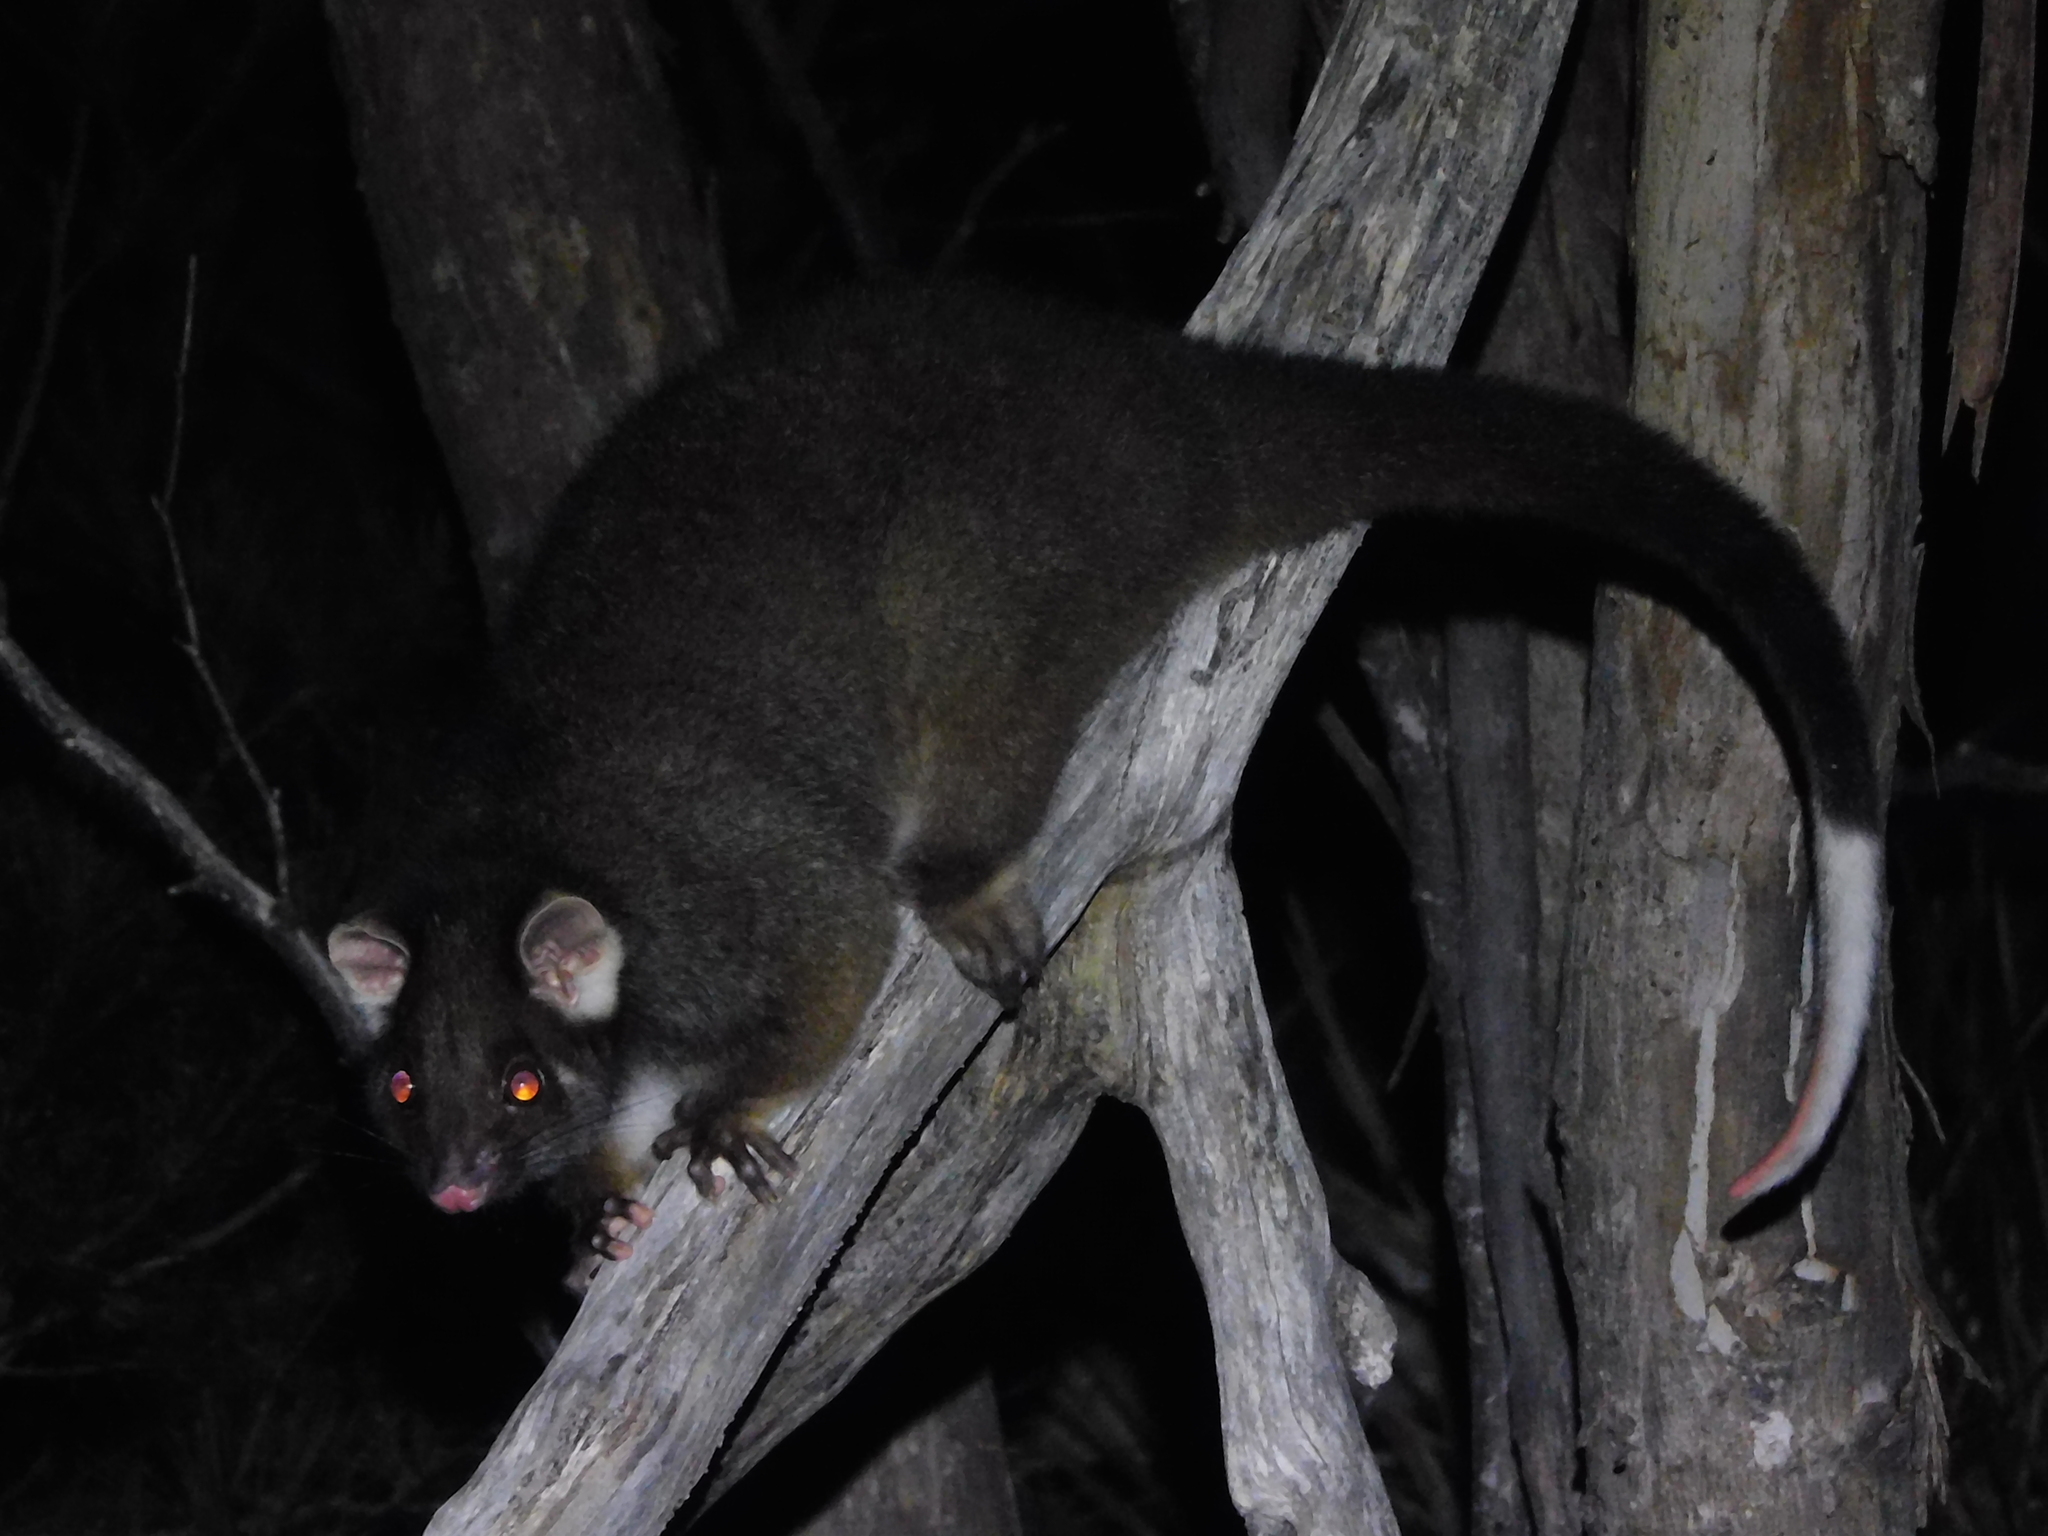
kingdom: Animalia
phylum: Chordata
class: Mammalia
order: Diprotodontia
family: Pseudocheiridae
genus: Pseudocheirus
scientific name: Pseudocheirus peregrinus
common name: Common ringtail possum
